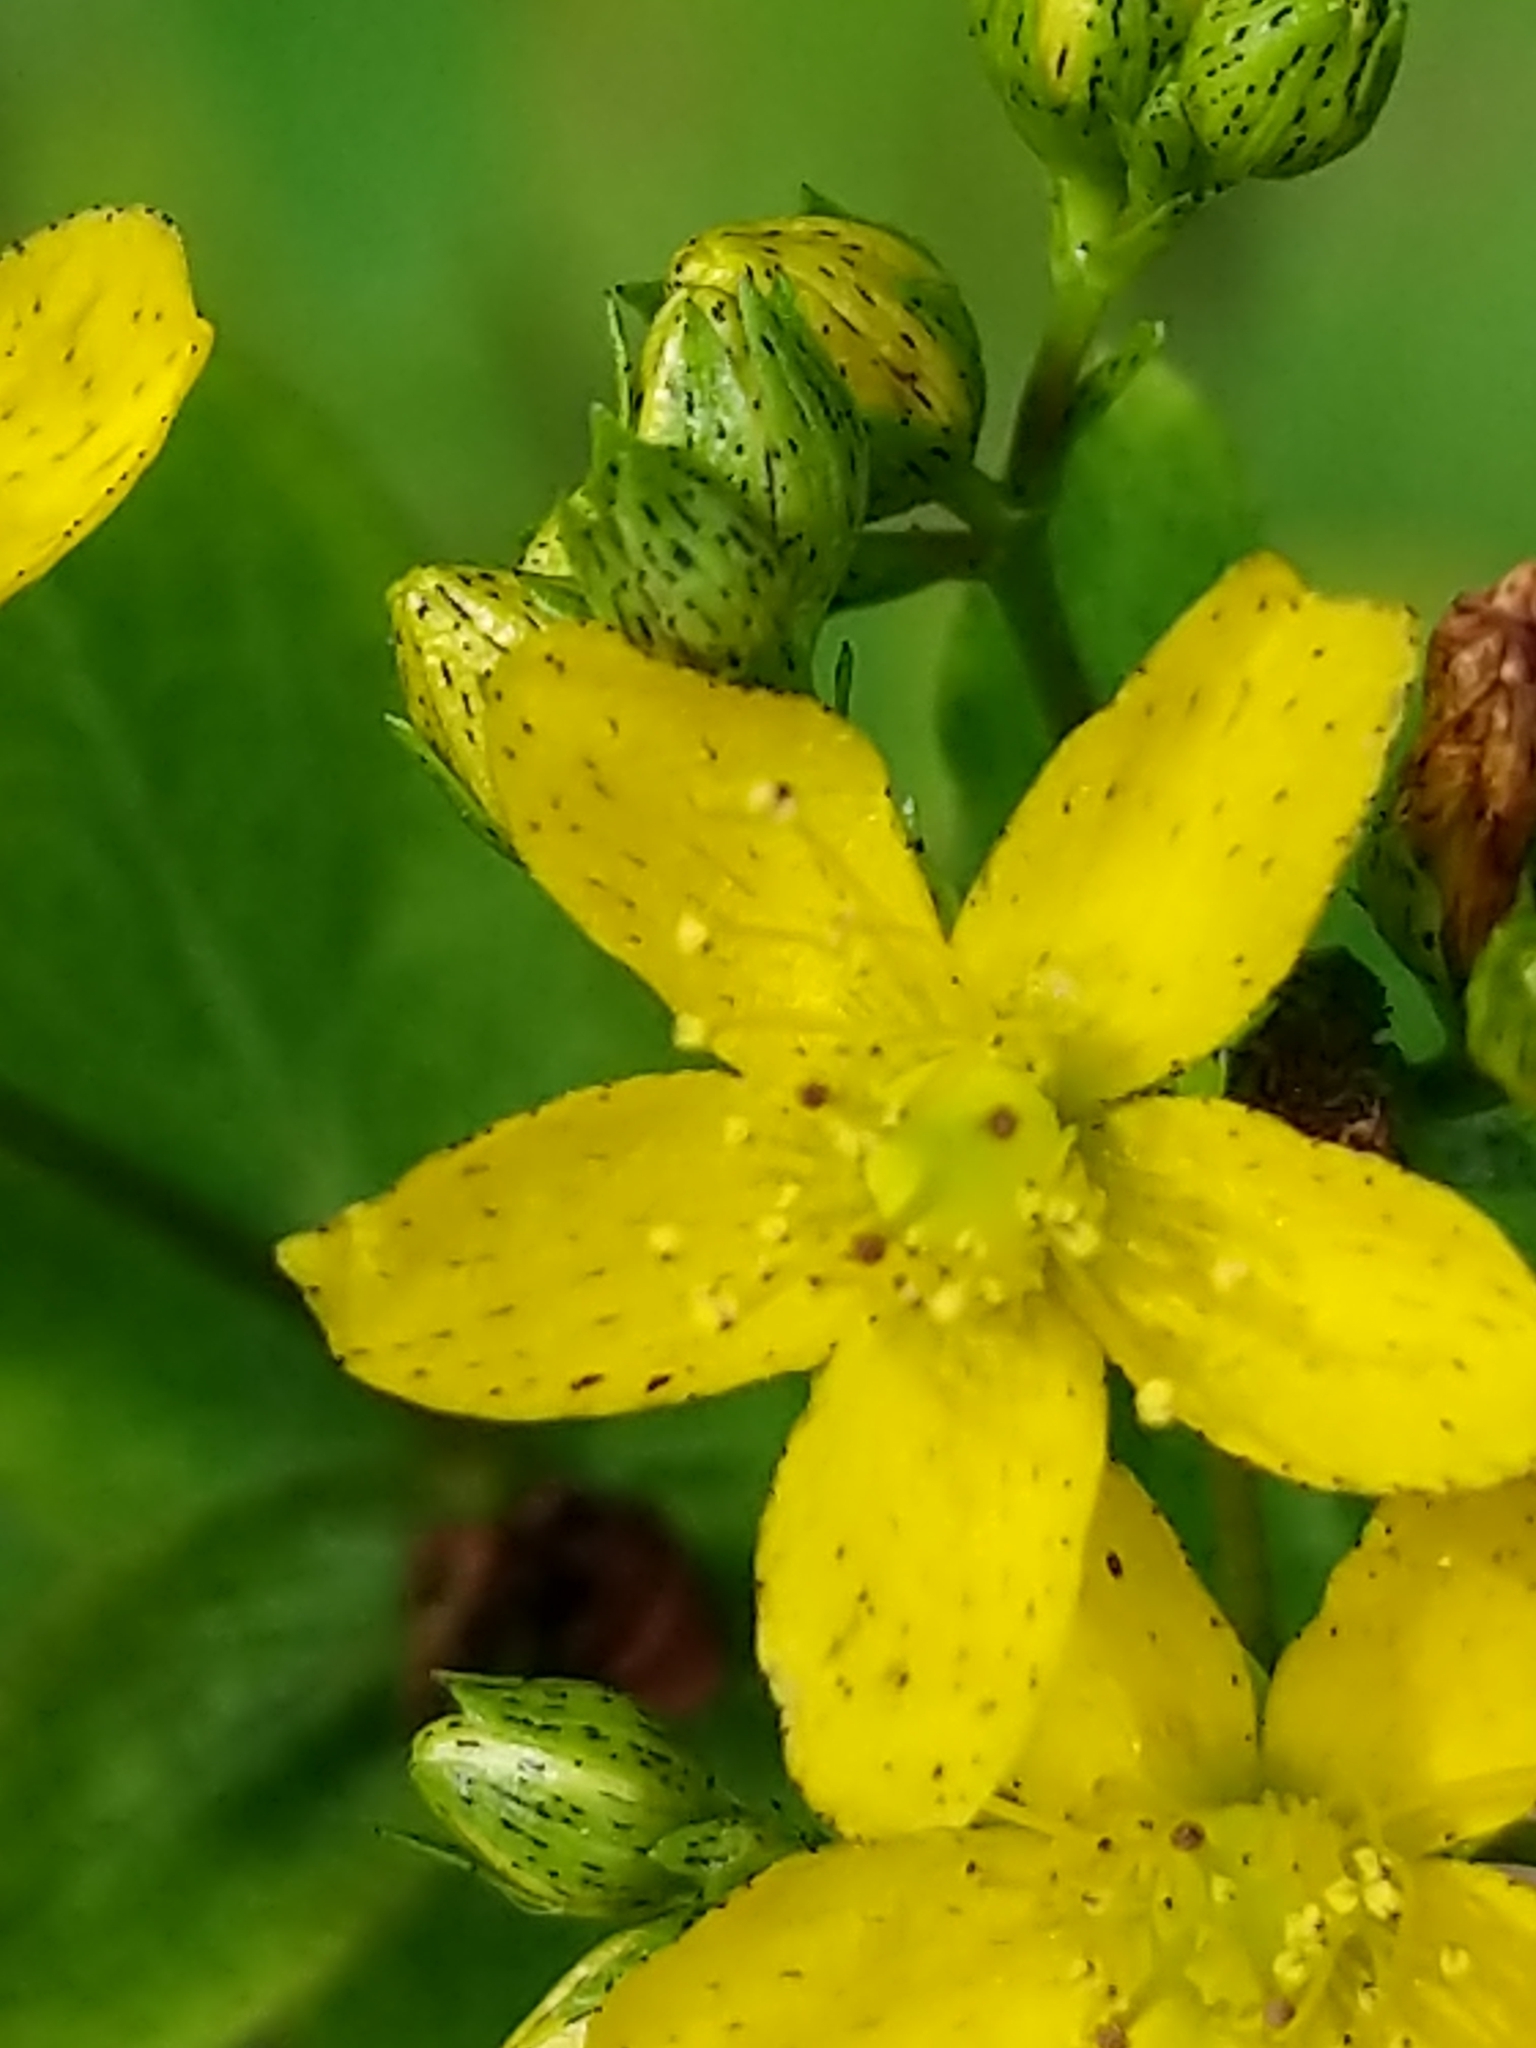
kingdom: Plantae
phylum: Tracheophyta
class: Magnoliopsida
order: Malpighiales
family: Hypericaceae
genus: Hypericum
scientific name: Hypericum punctatum
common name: Spotted st. john's-wort
